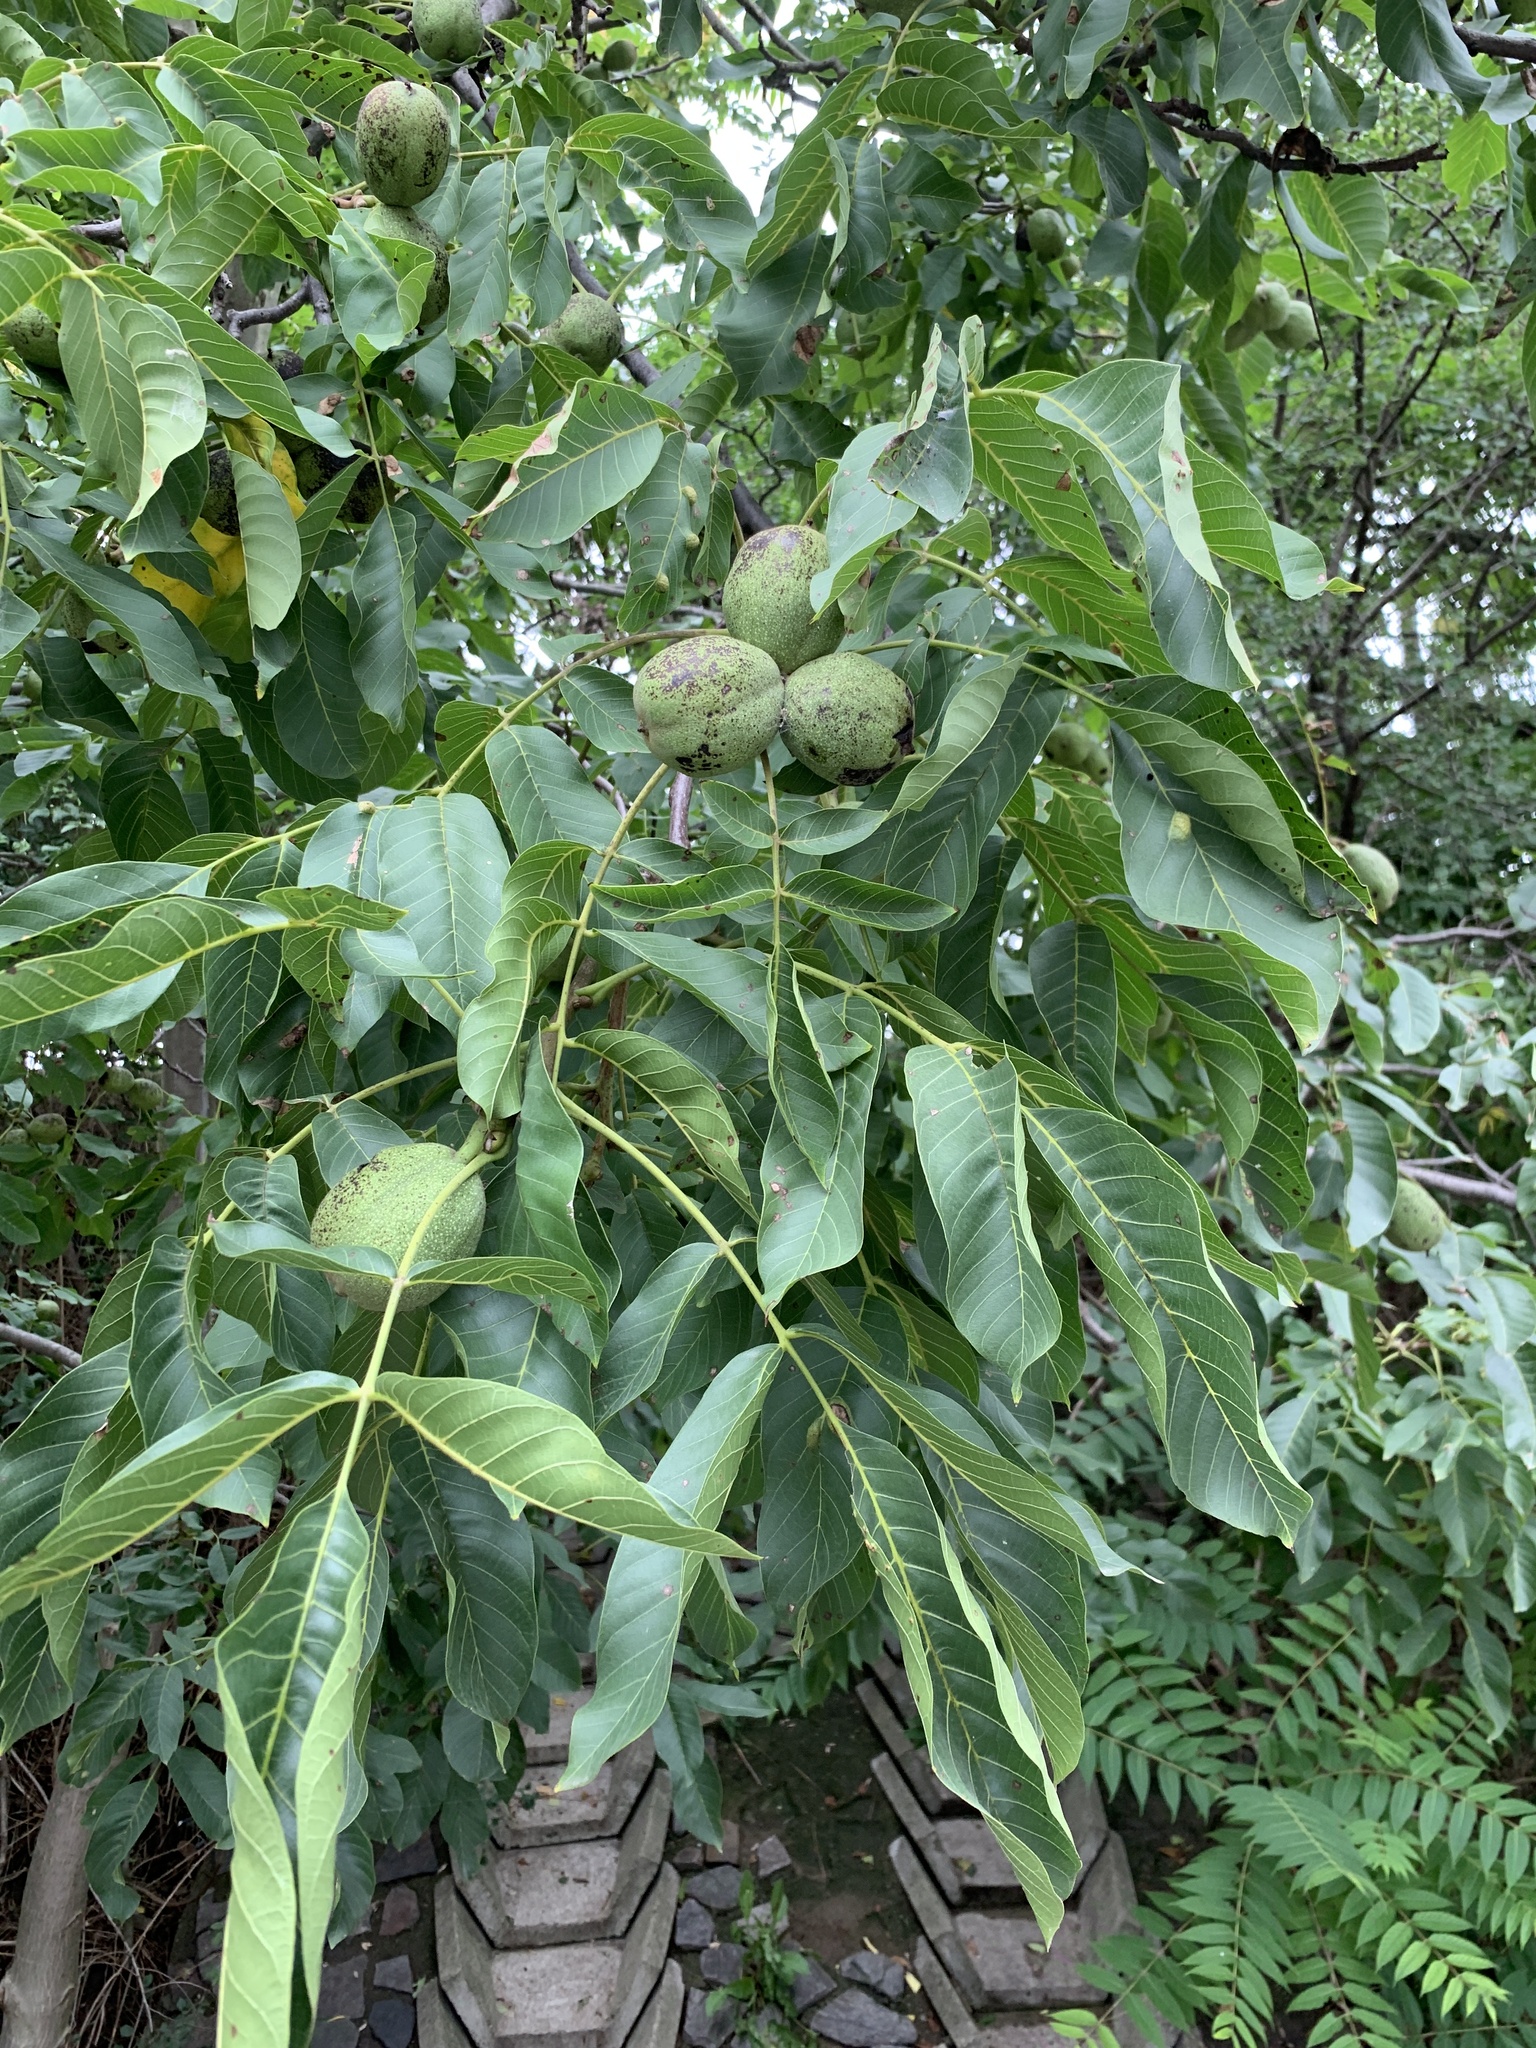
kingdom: Plantae
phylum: Tracheophyta
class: Magnoliopsida
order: Fagales
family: Juglandaceae
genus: Juglans
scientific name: Juglans regia
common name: Walnut
